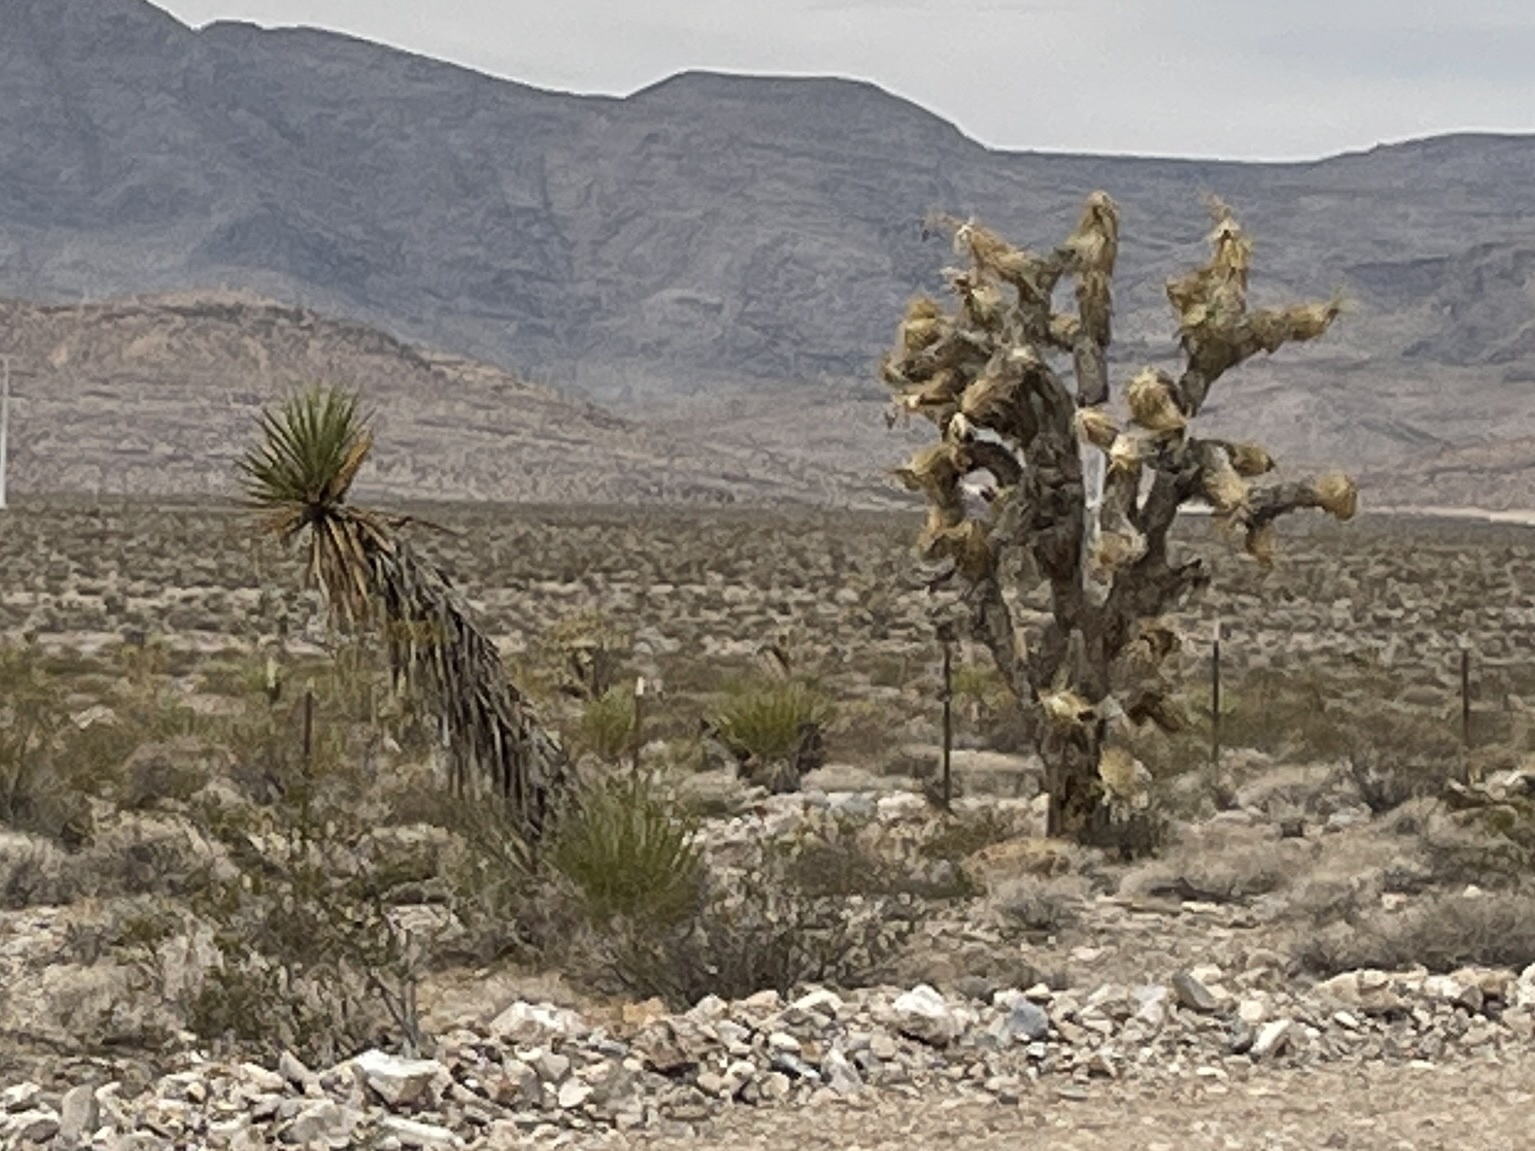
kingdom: Plantae
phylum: Tracheophyta
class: Liliopsida
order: Asparagales
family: Asparagaceae
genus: Yucca
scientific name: Yucca brevifolia
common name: Joshua tree
